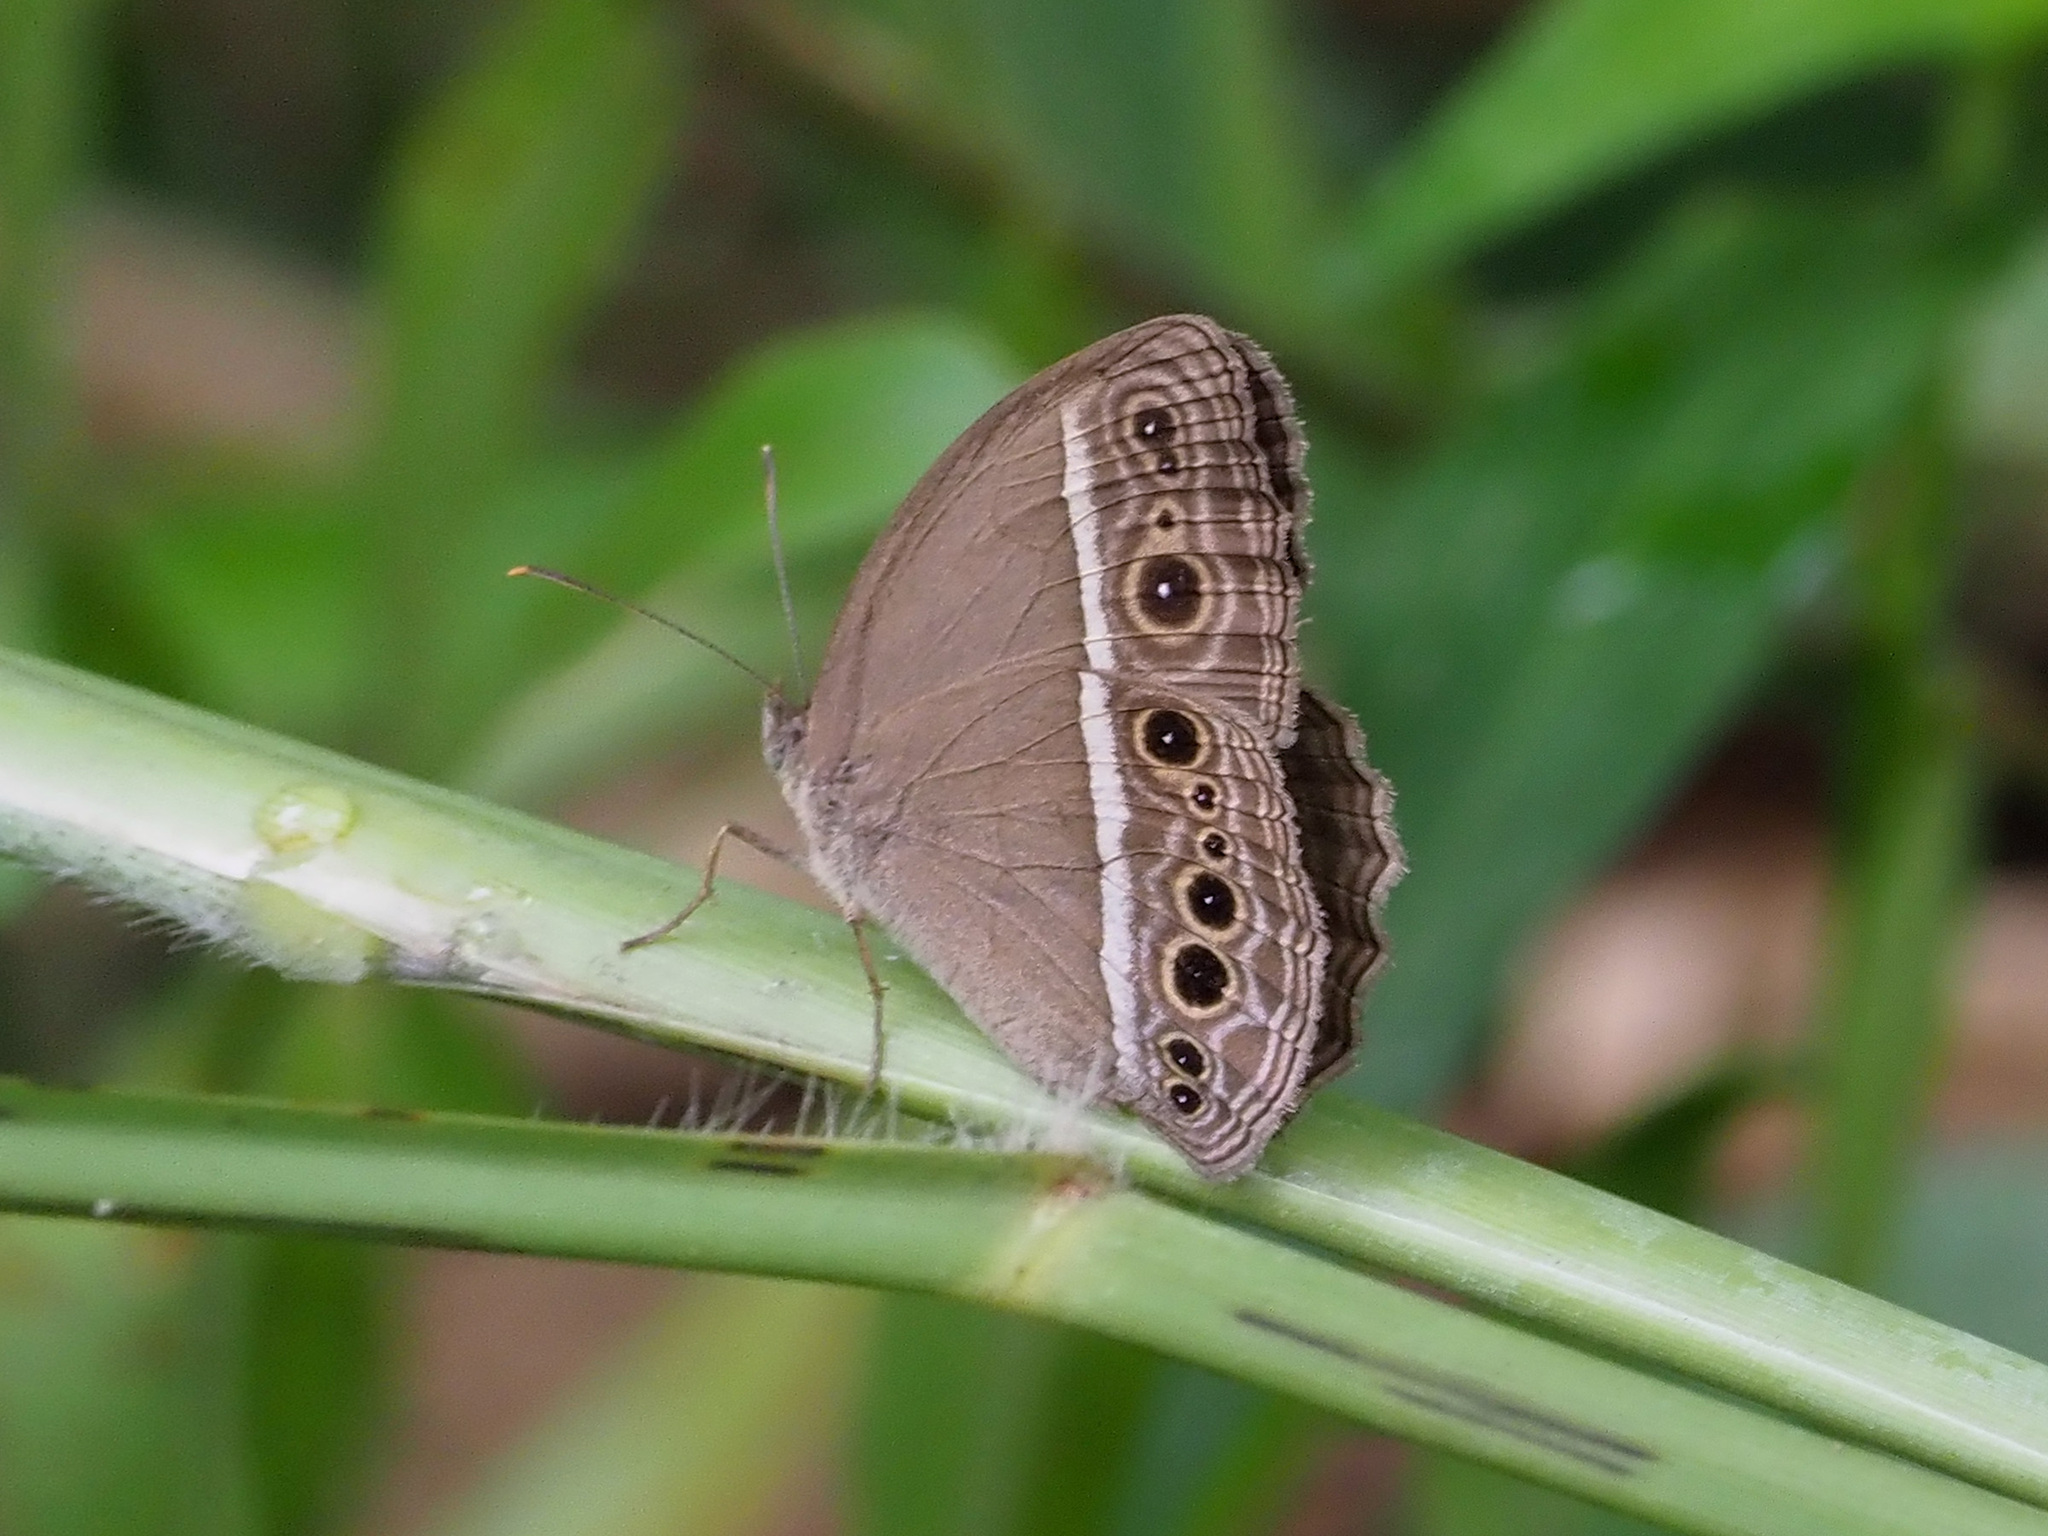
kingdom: Animalia
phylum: Arthropoda
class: Insecta
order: Lepidoptera
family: Nymphalidae
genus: Mycalesis
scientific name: Mycalesis mineus
